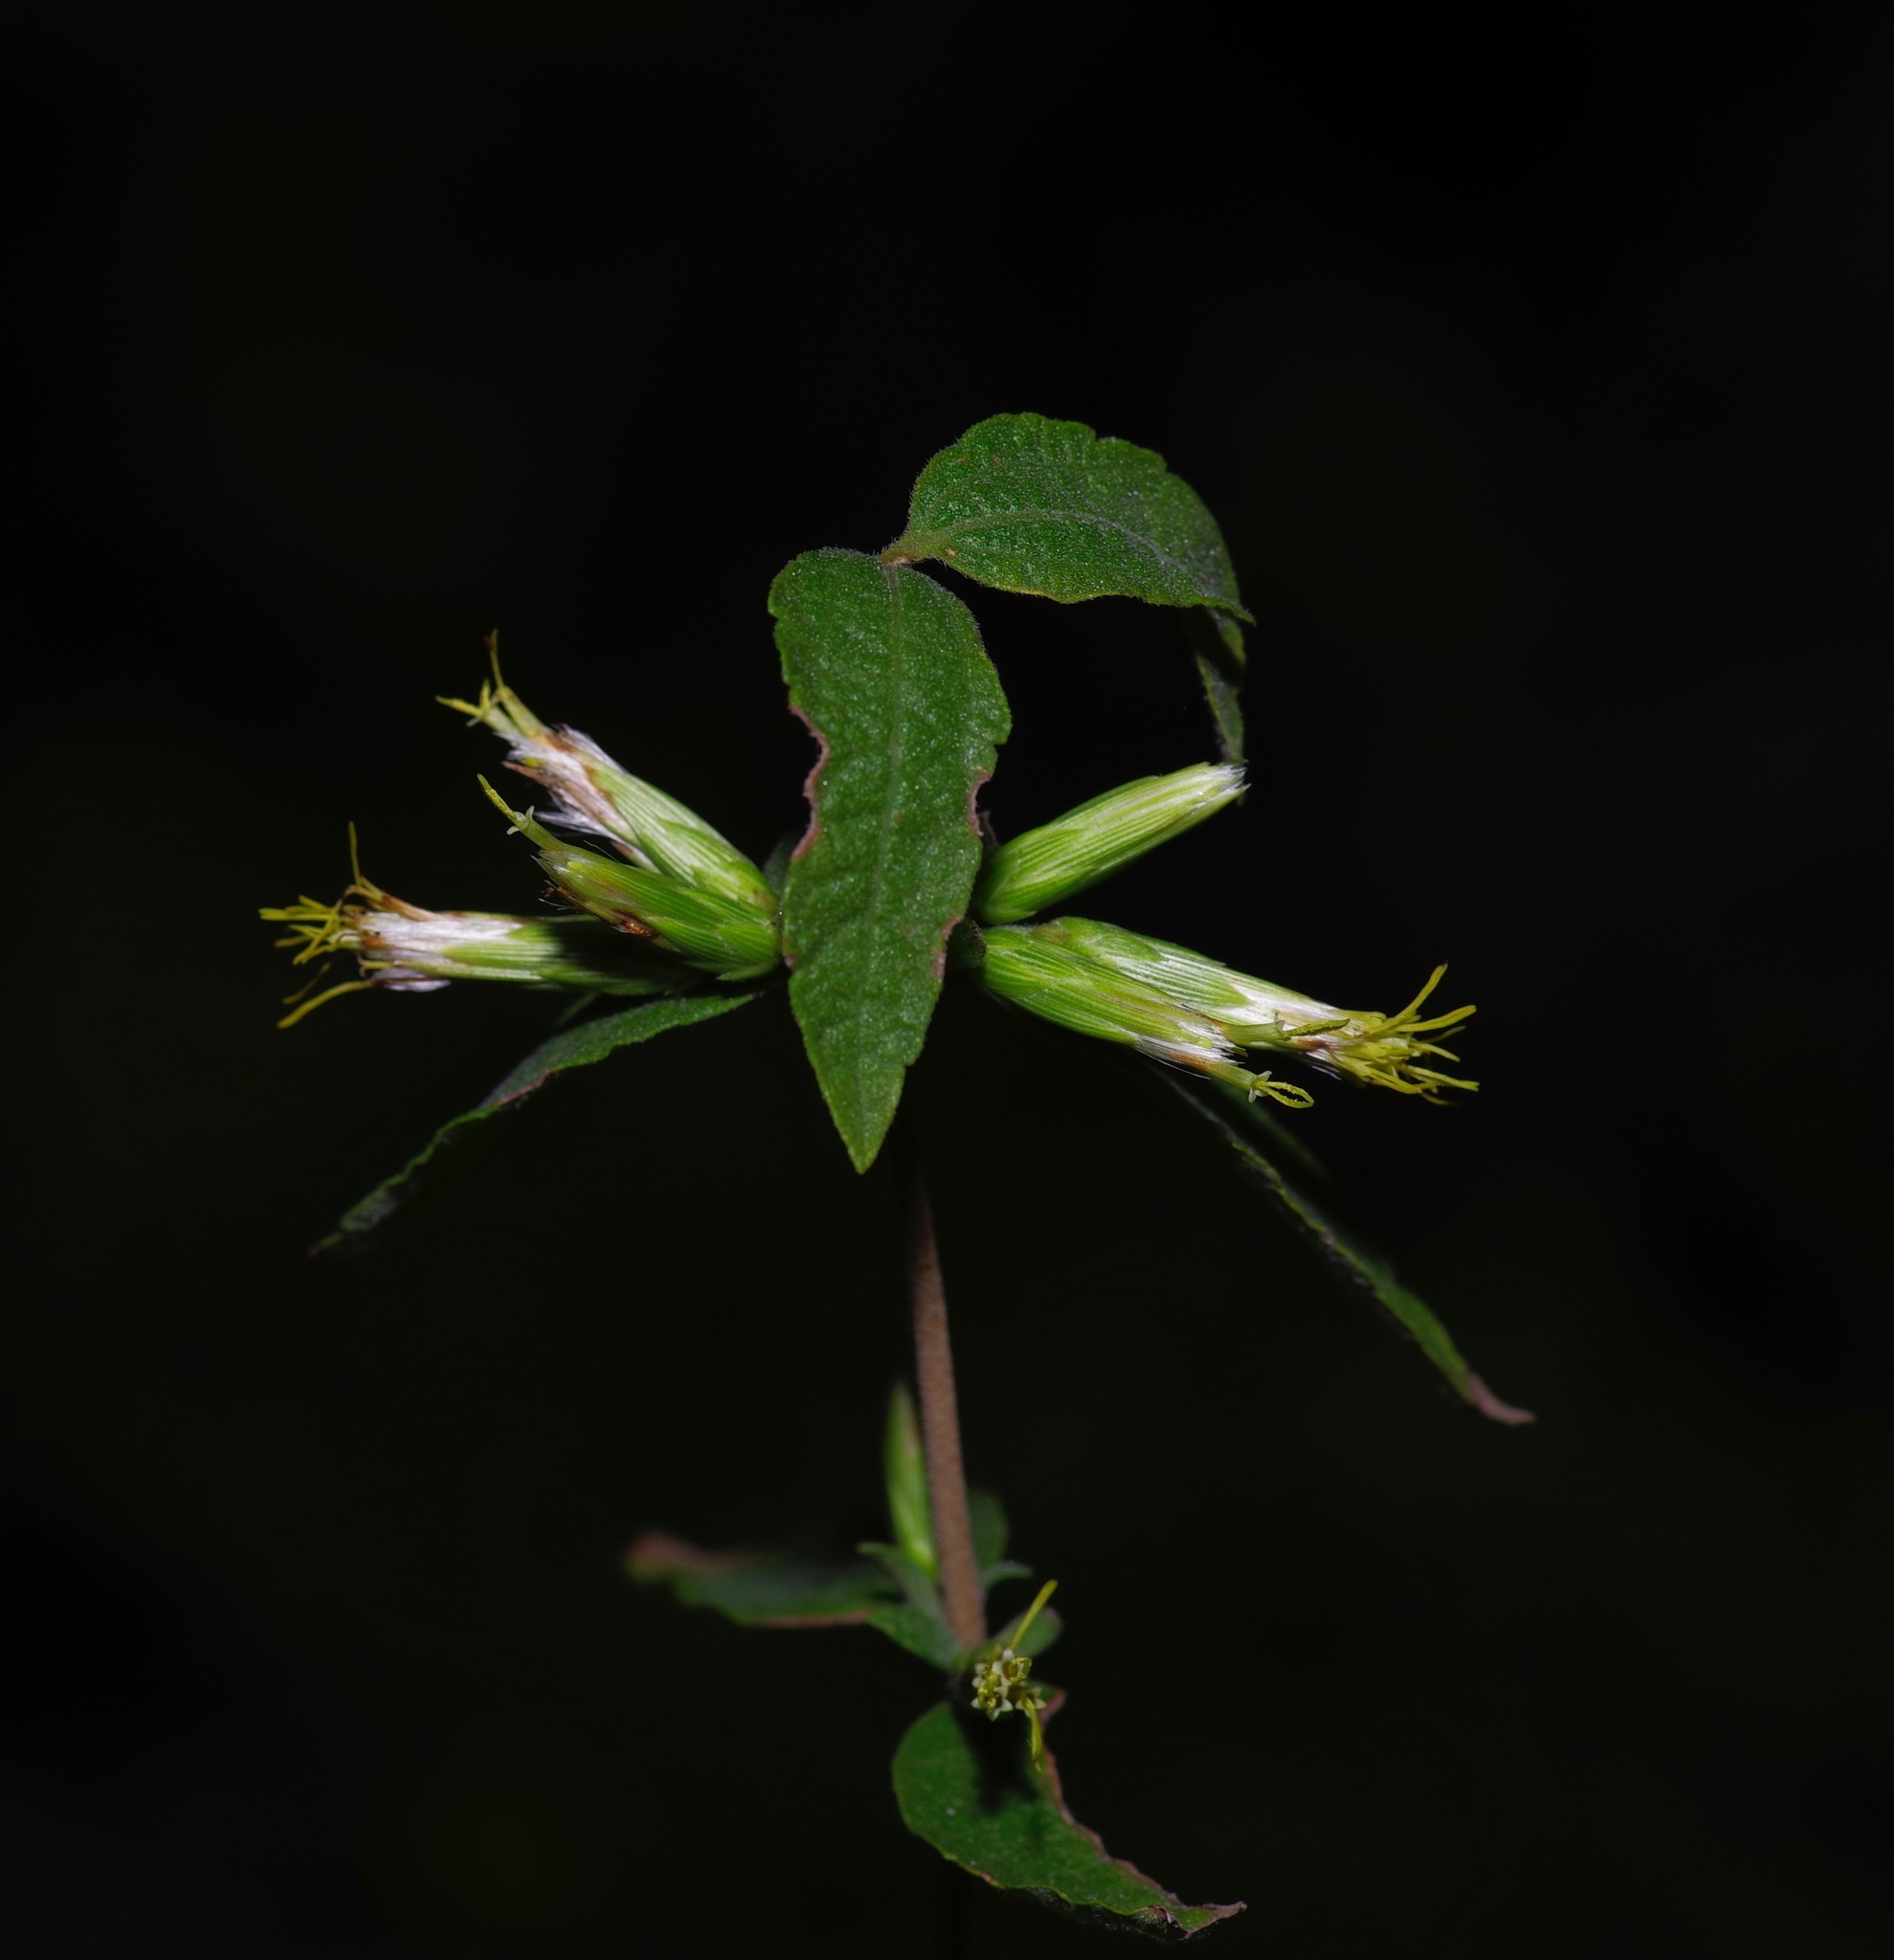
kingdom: Plantae
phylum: Tracheophyta
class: Magnoliopsida
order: Asterales
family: Asteraceae
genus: Brickellia
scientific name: Brickellia cylindracea
